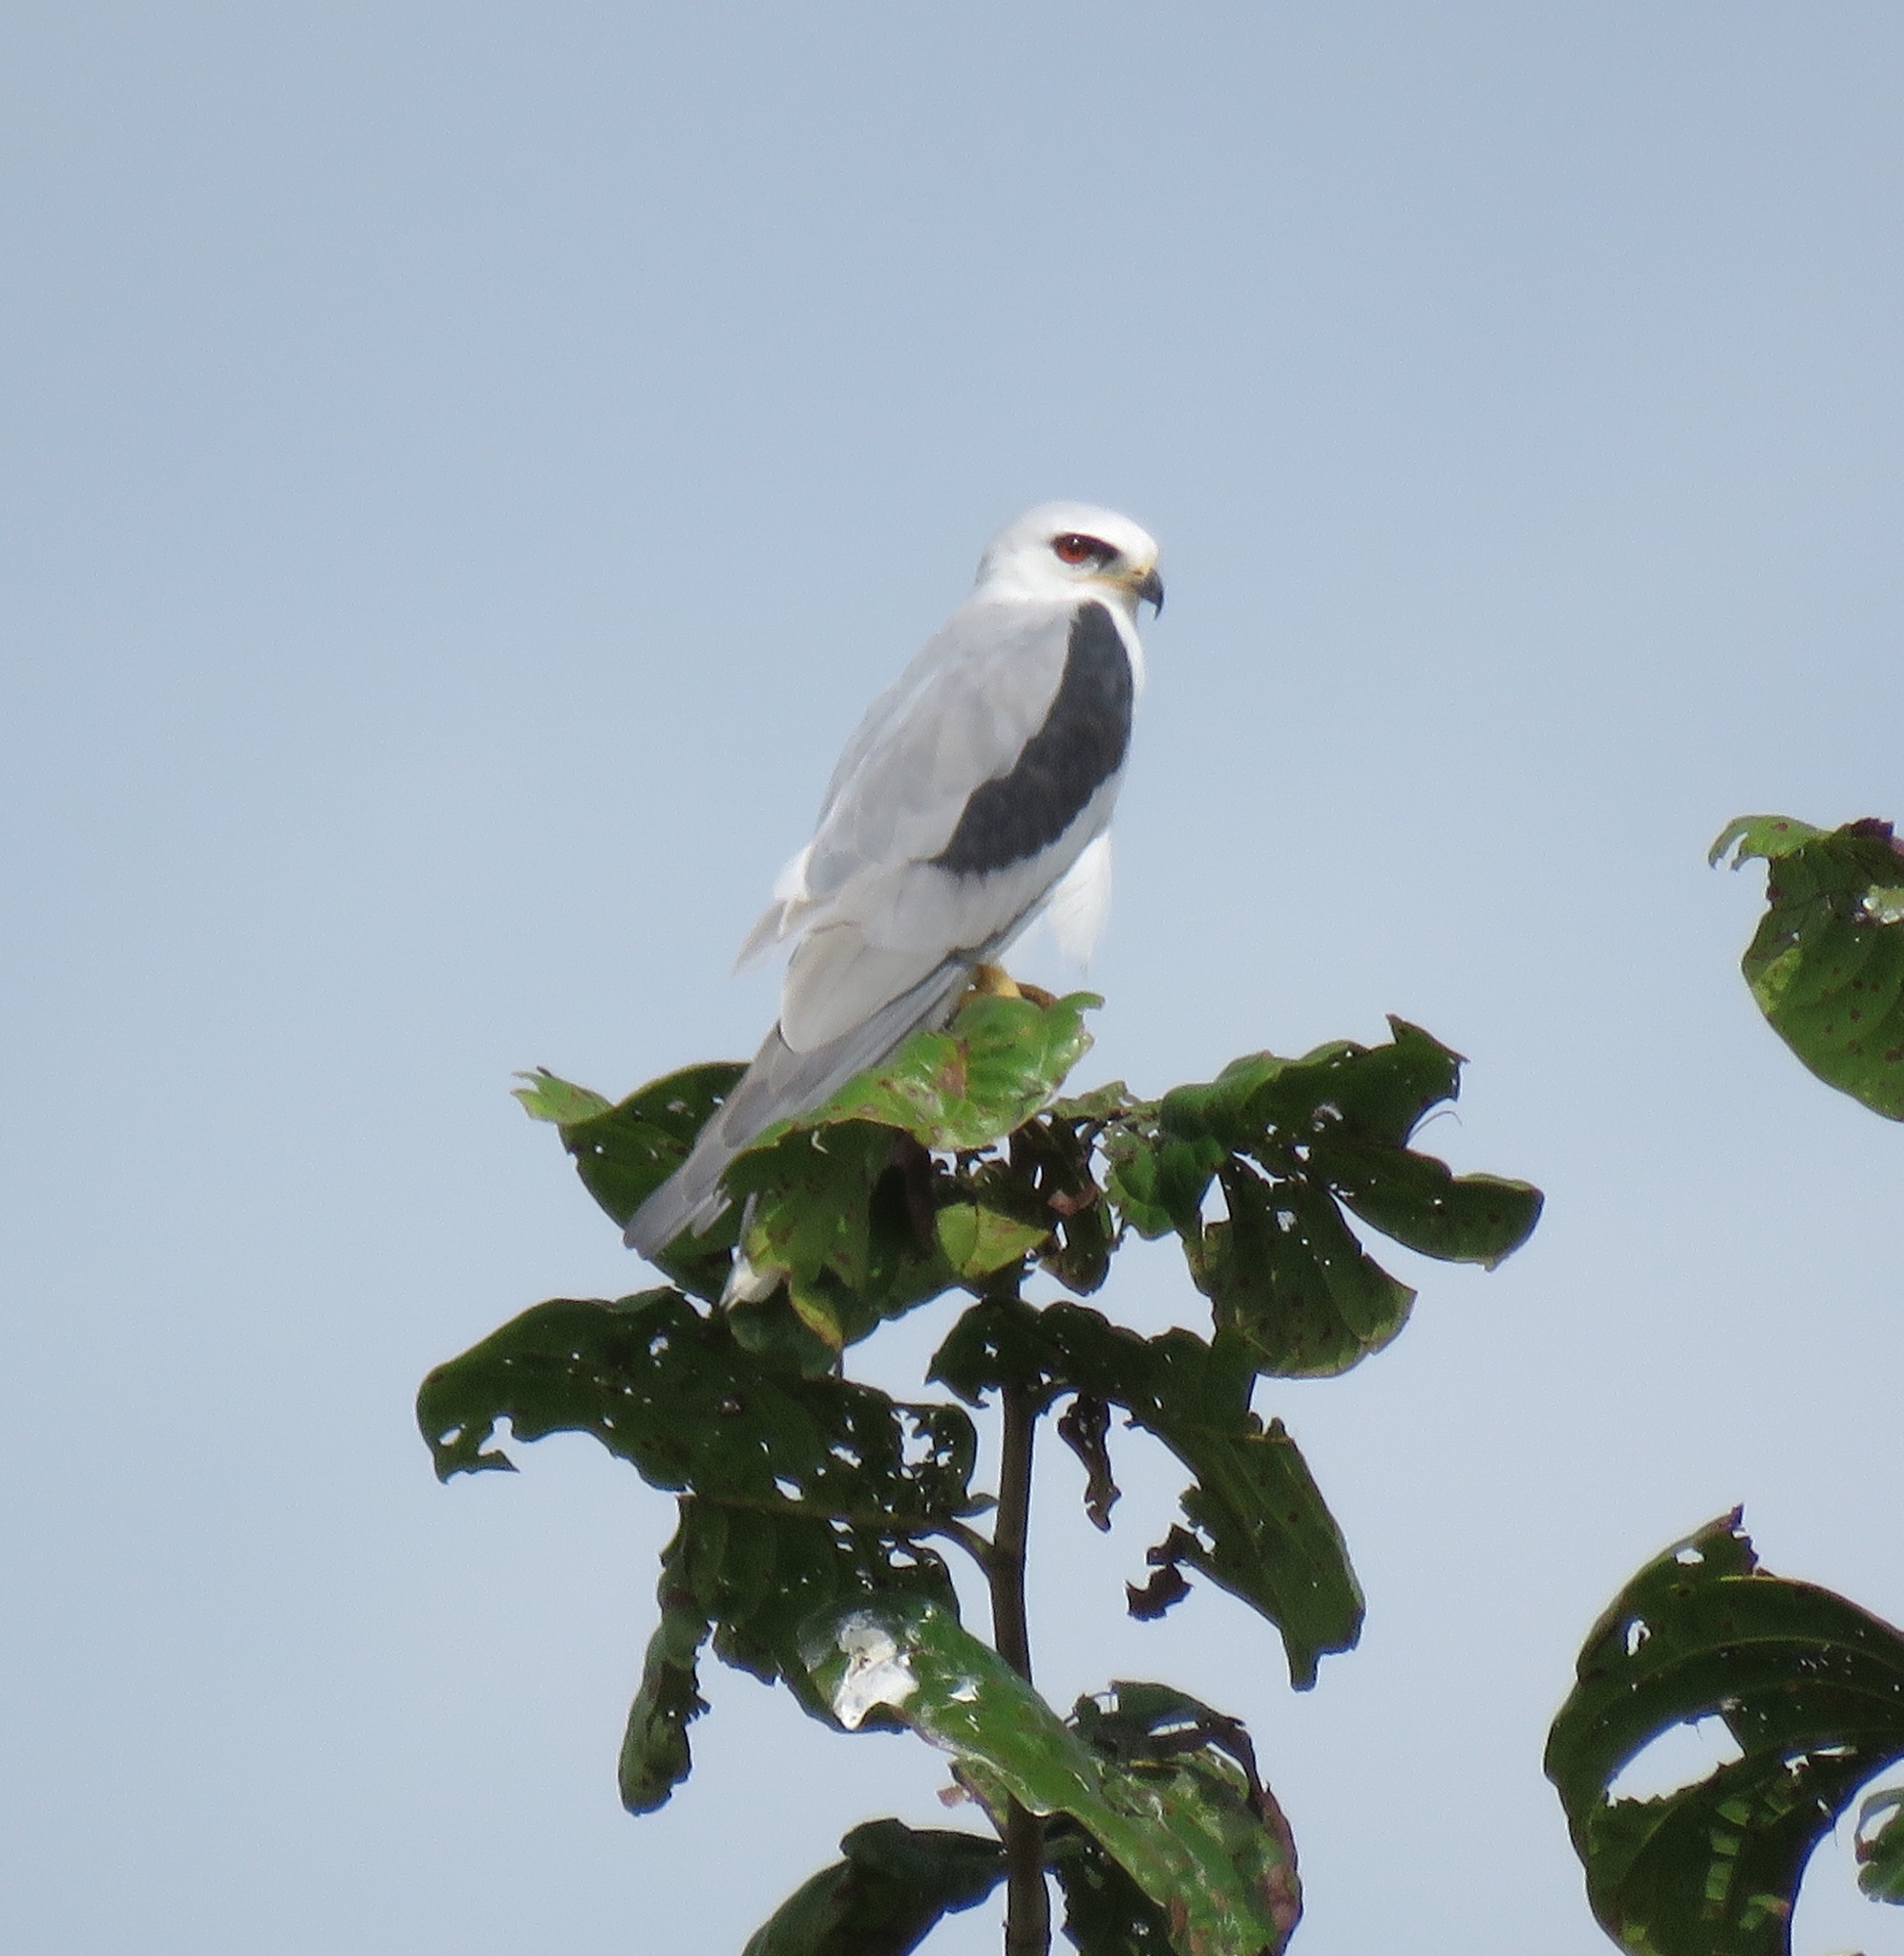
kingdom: Animalia
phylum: Chordata
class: Aves
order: Accipitriformes
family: Accipitridae
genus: Elanus
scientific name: Elanus leucurus
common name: White-tailed kite
